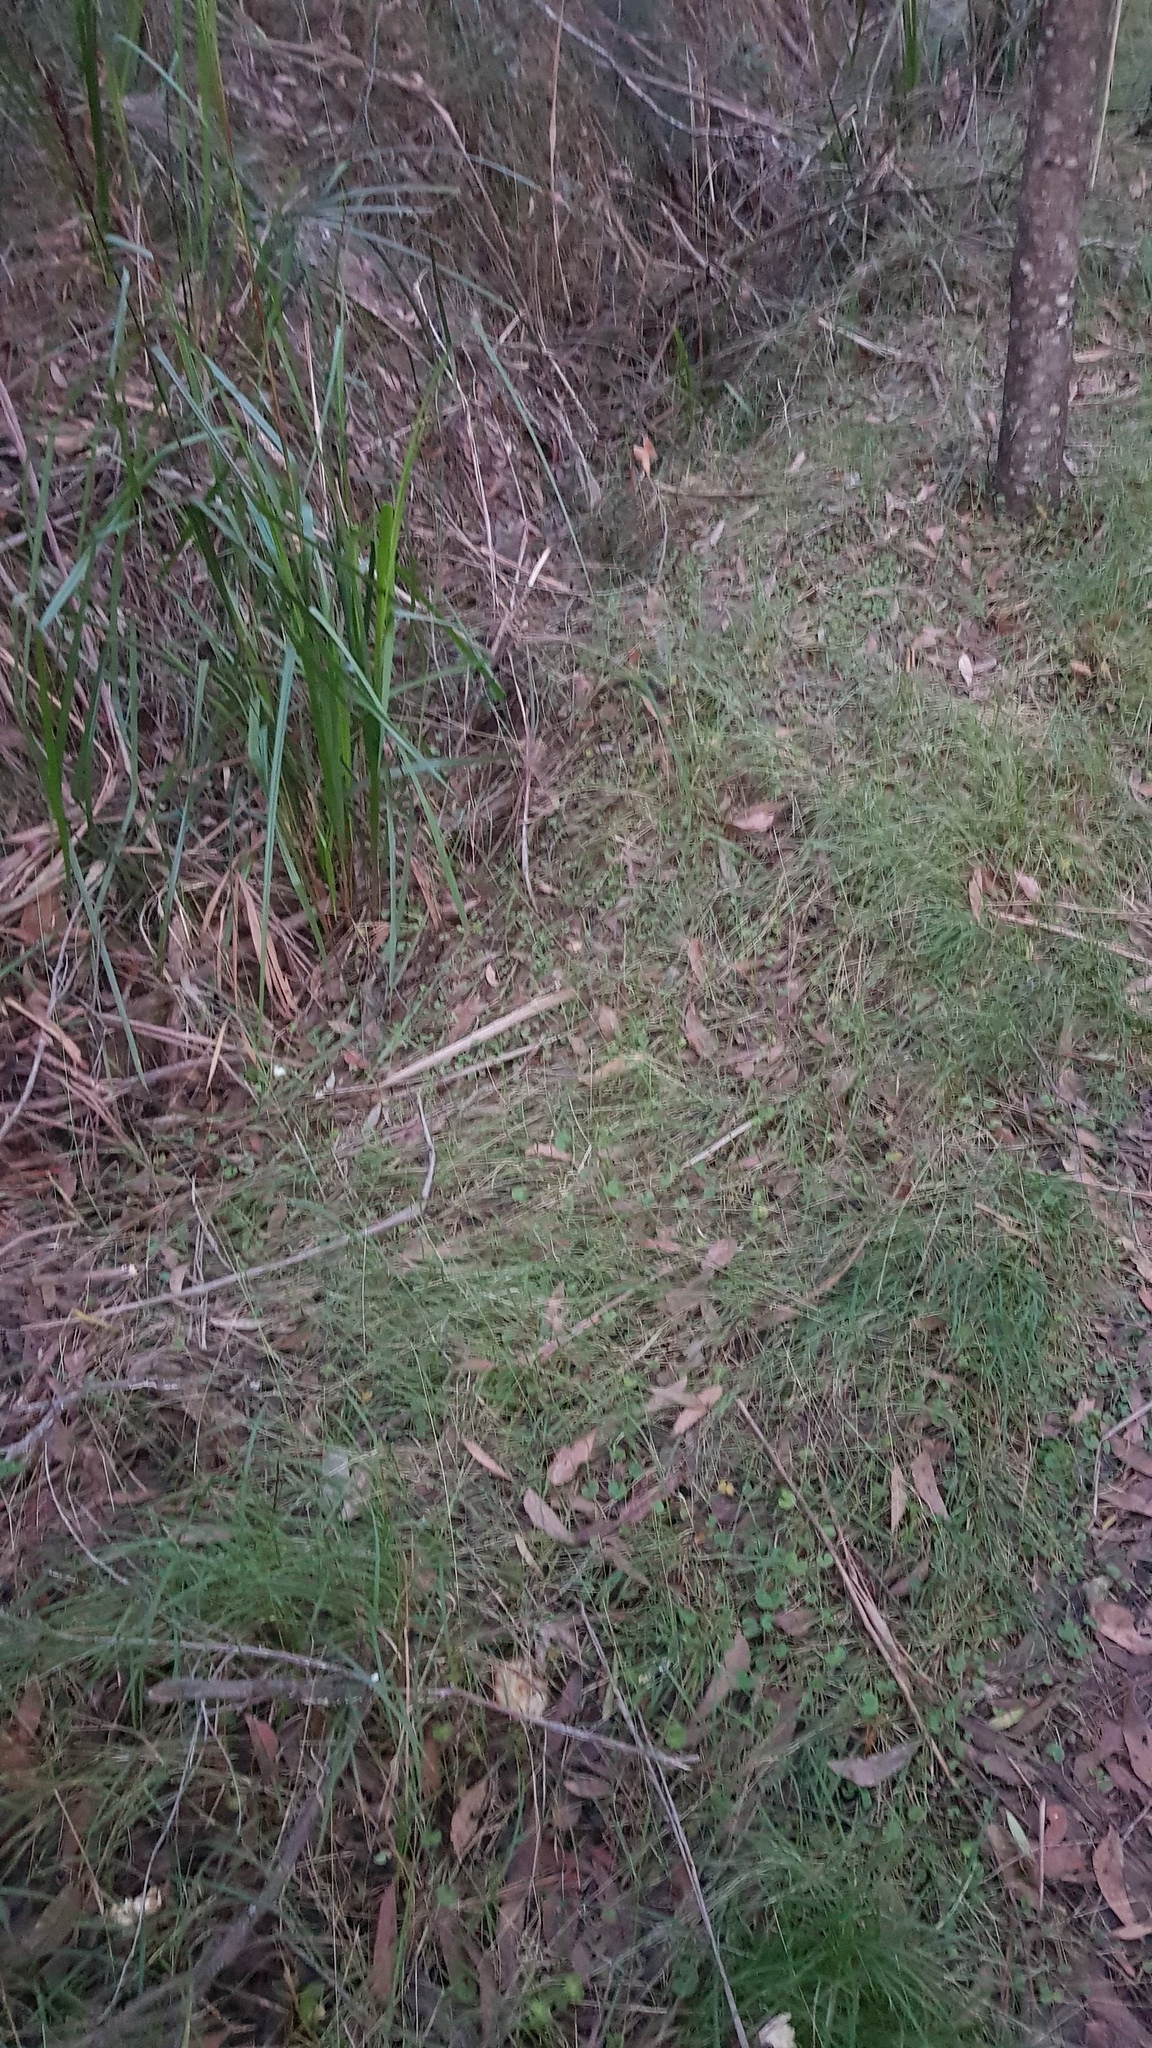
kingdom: Fungi
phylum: Basidiomycota
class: Agaricomycetes
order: Agaricales
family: Cortinariaceae
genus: Cortinarius
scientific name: Cortinarius rotundisporus
